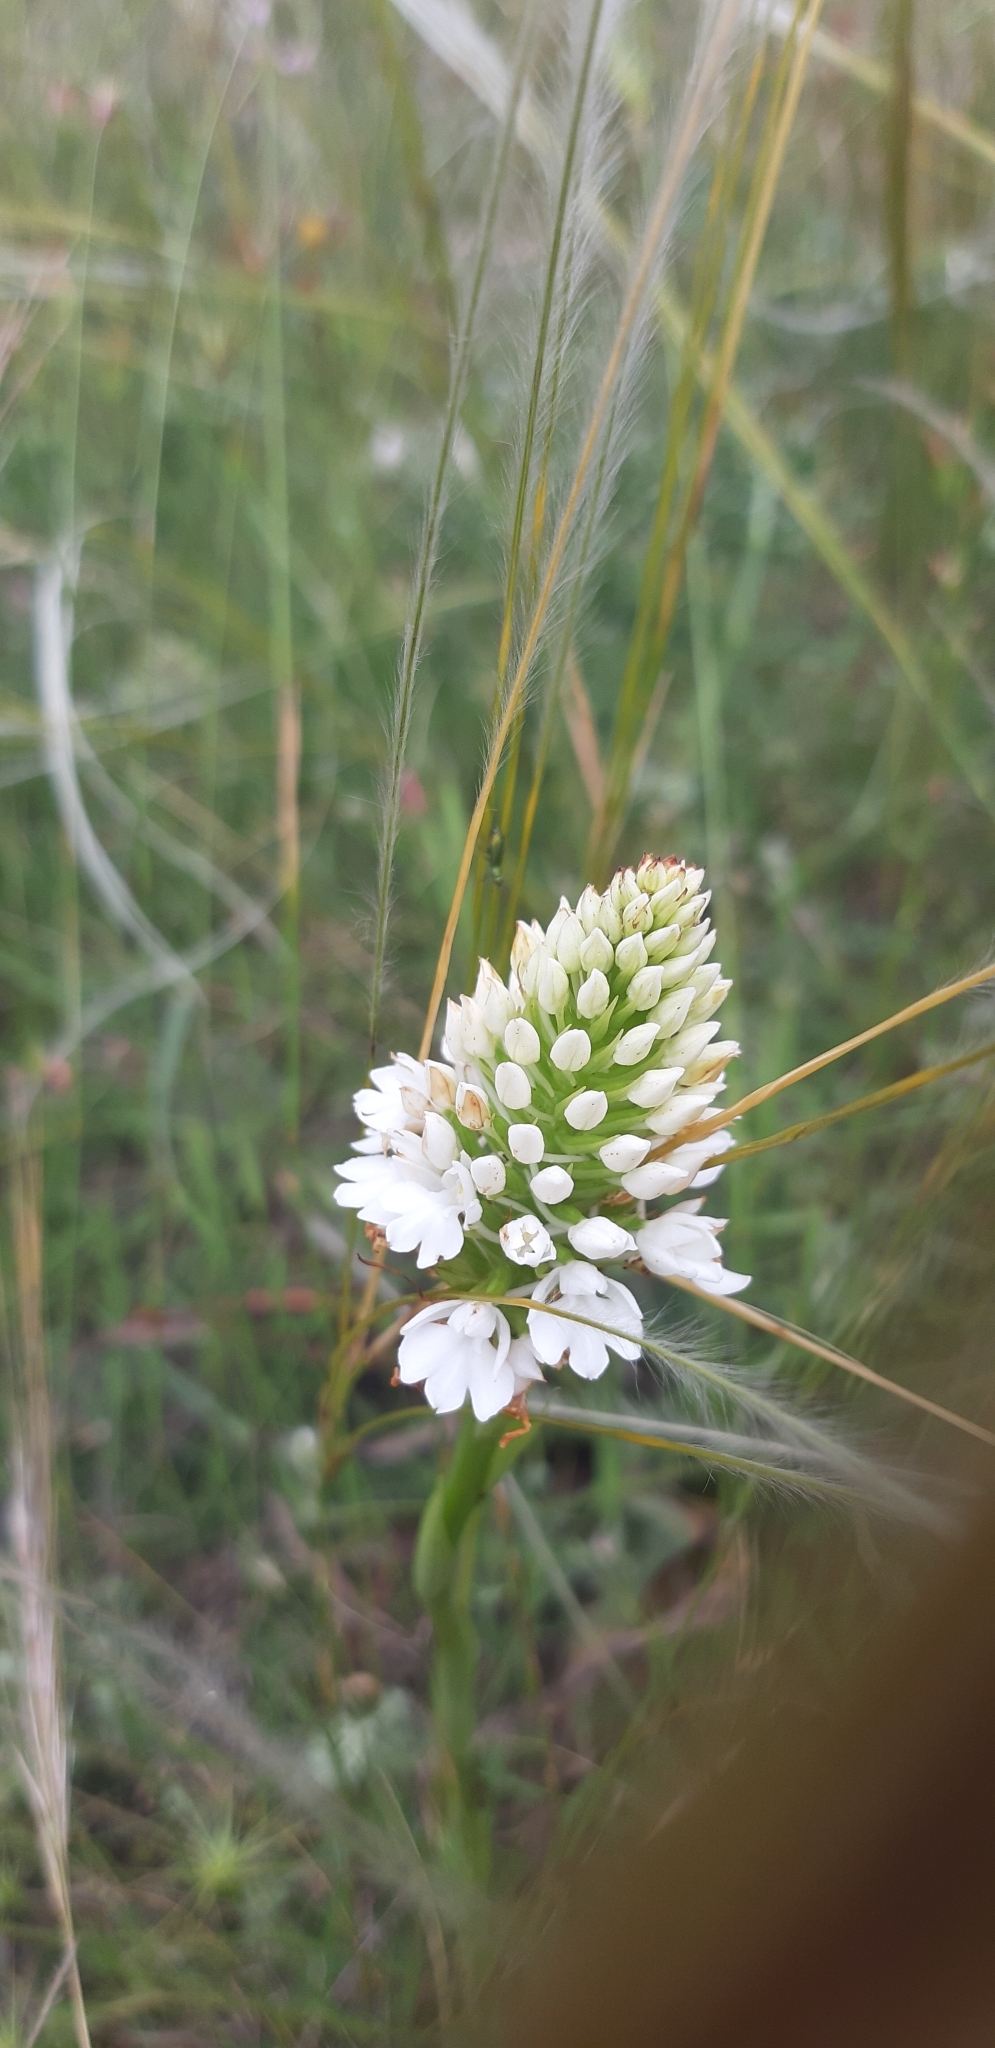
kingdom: Plantae
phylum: Tracheophyta
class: Liliopsida
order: Asparagales
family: Orchidaceae
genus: Anacamptis
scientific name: Anacamptis pyramidalis
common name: Pyramidal orchid
